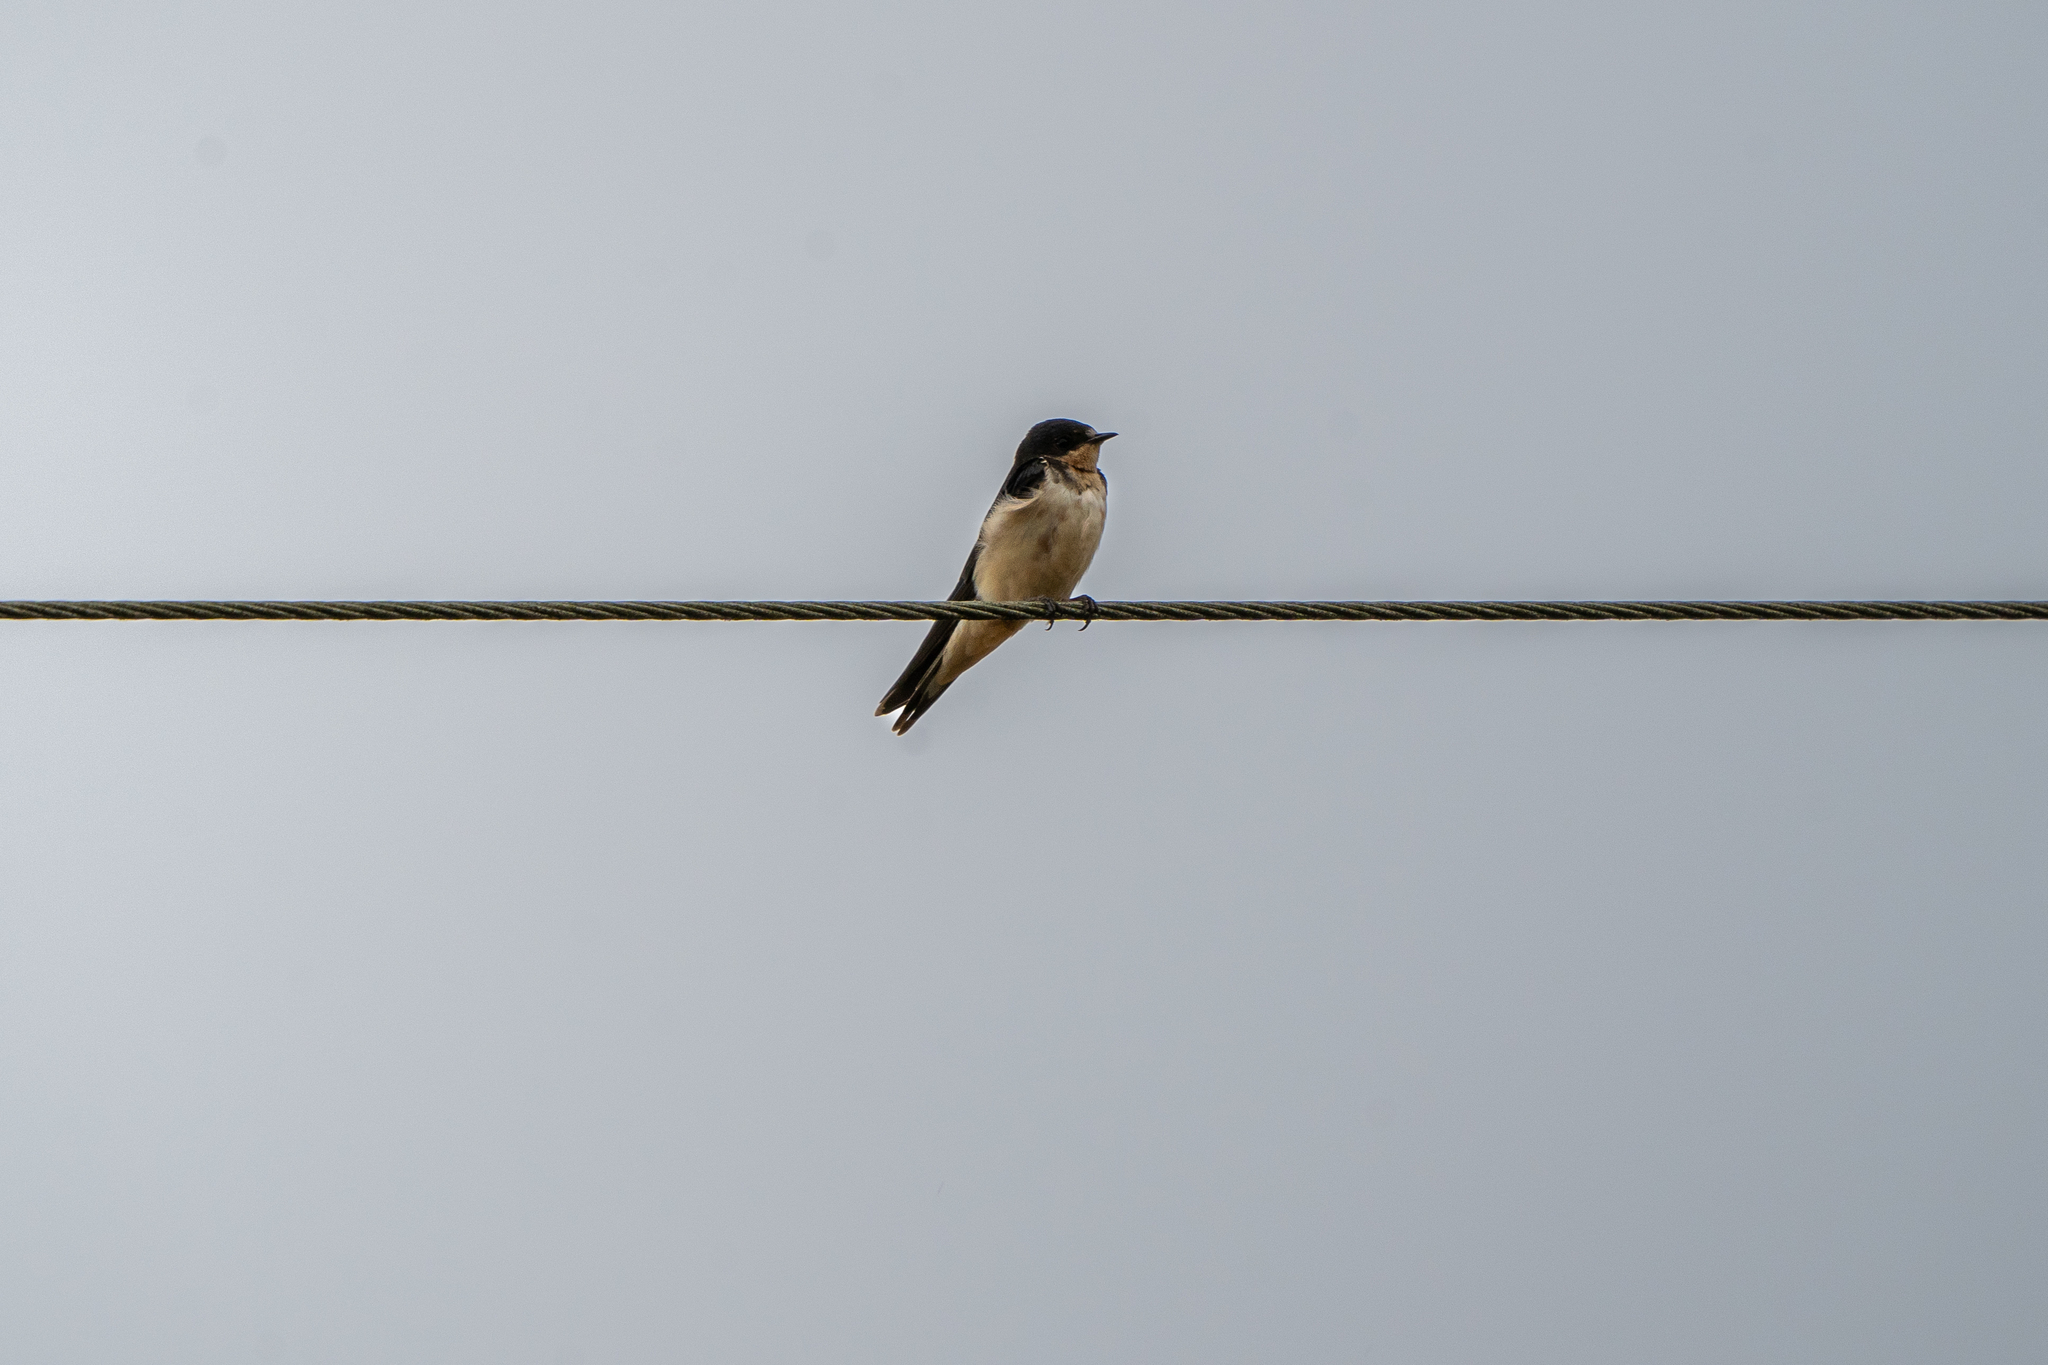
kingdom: Animalia
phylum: Chordata
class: Aves
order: Passeriformes
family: Hirundinidae
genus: Hirundo
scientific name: Hirundo rustica
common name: Barn swallow
